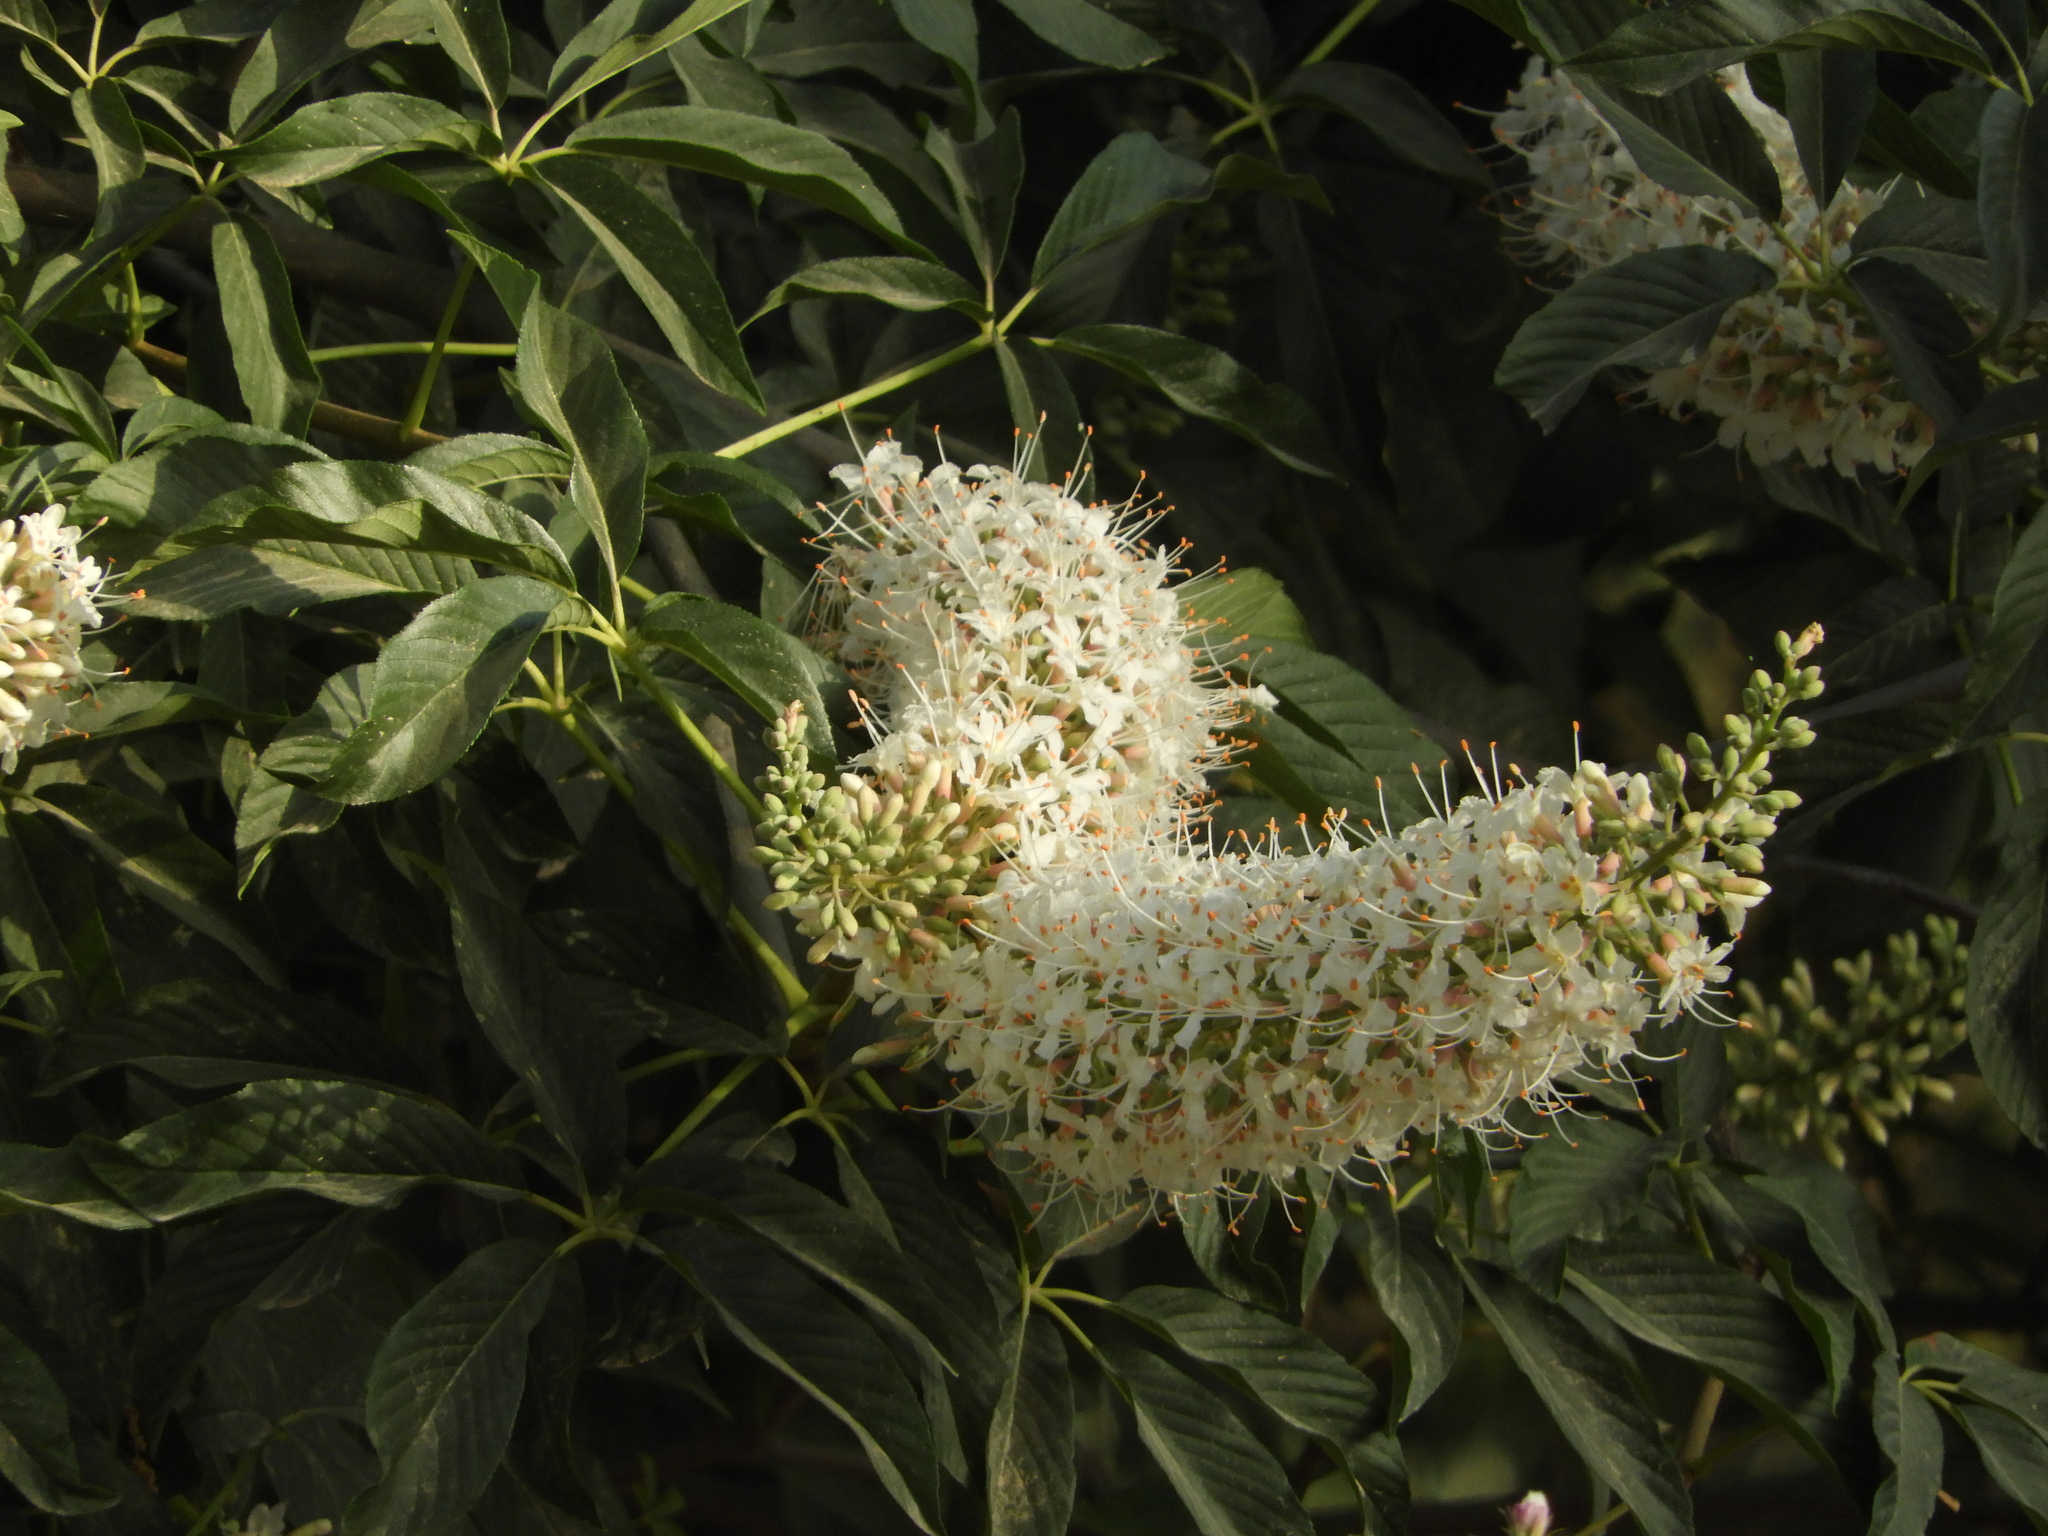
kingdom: Plantae
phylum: Tracheophyta
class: Magnoliopsida
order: Sapindales
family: Sapindaceae
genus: Aesculus
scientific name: Aesculus californica
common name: California buckeye
